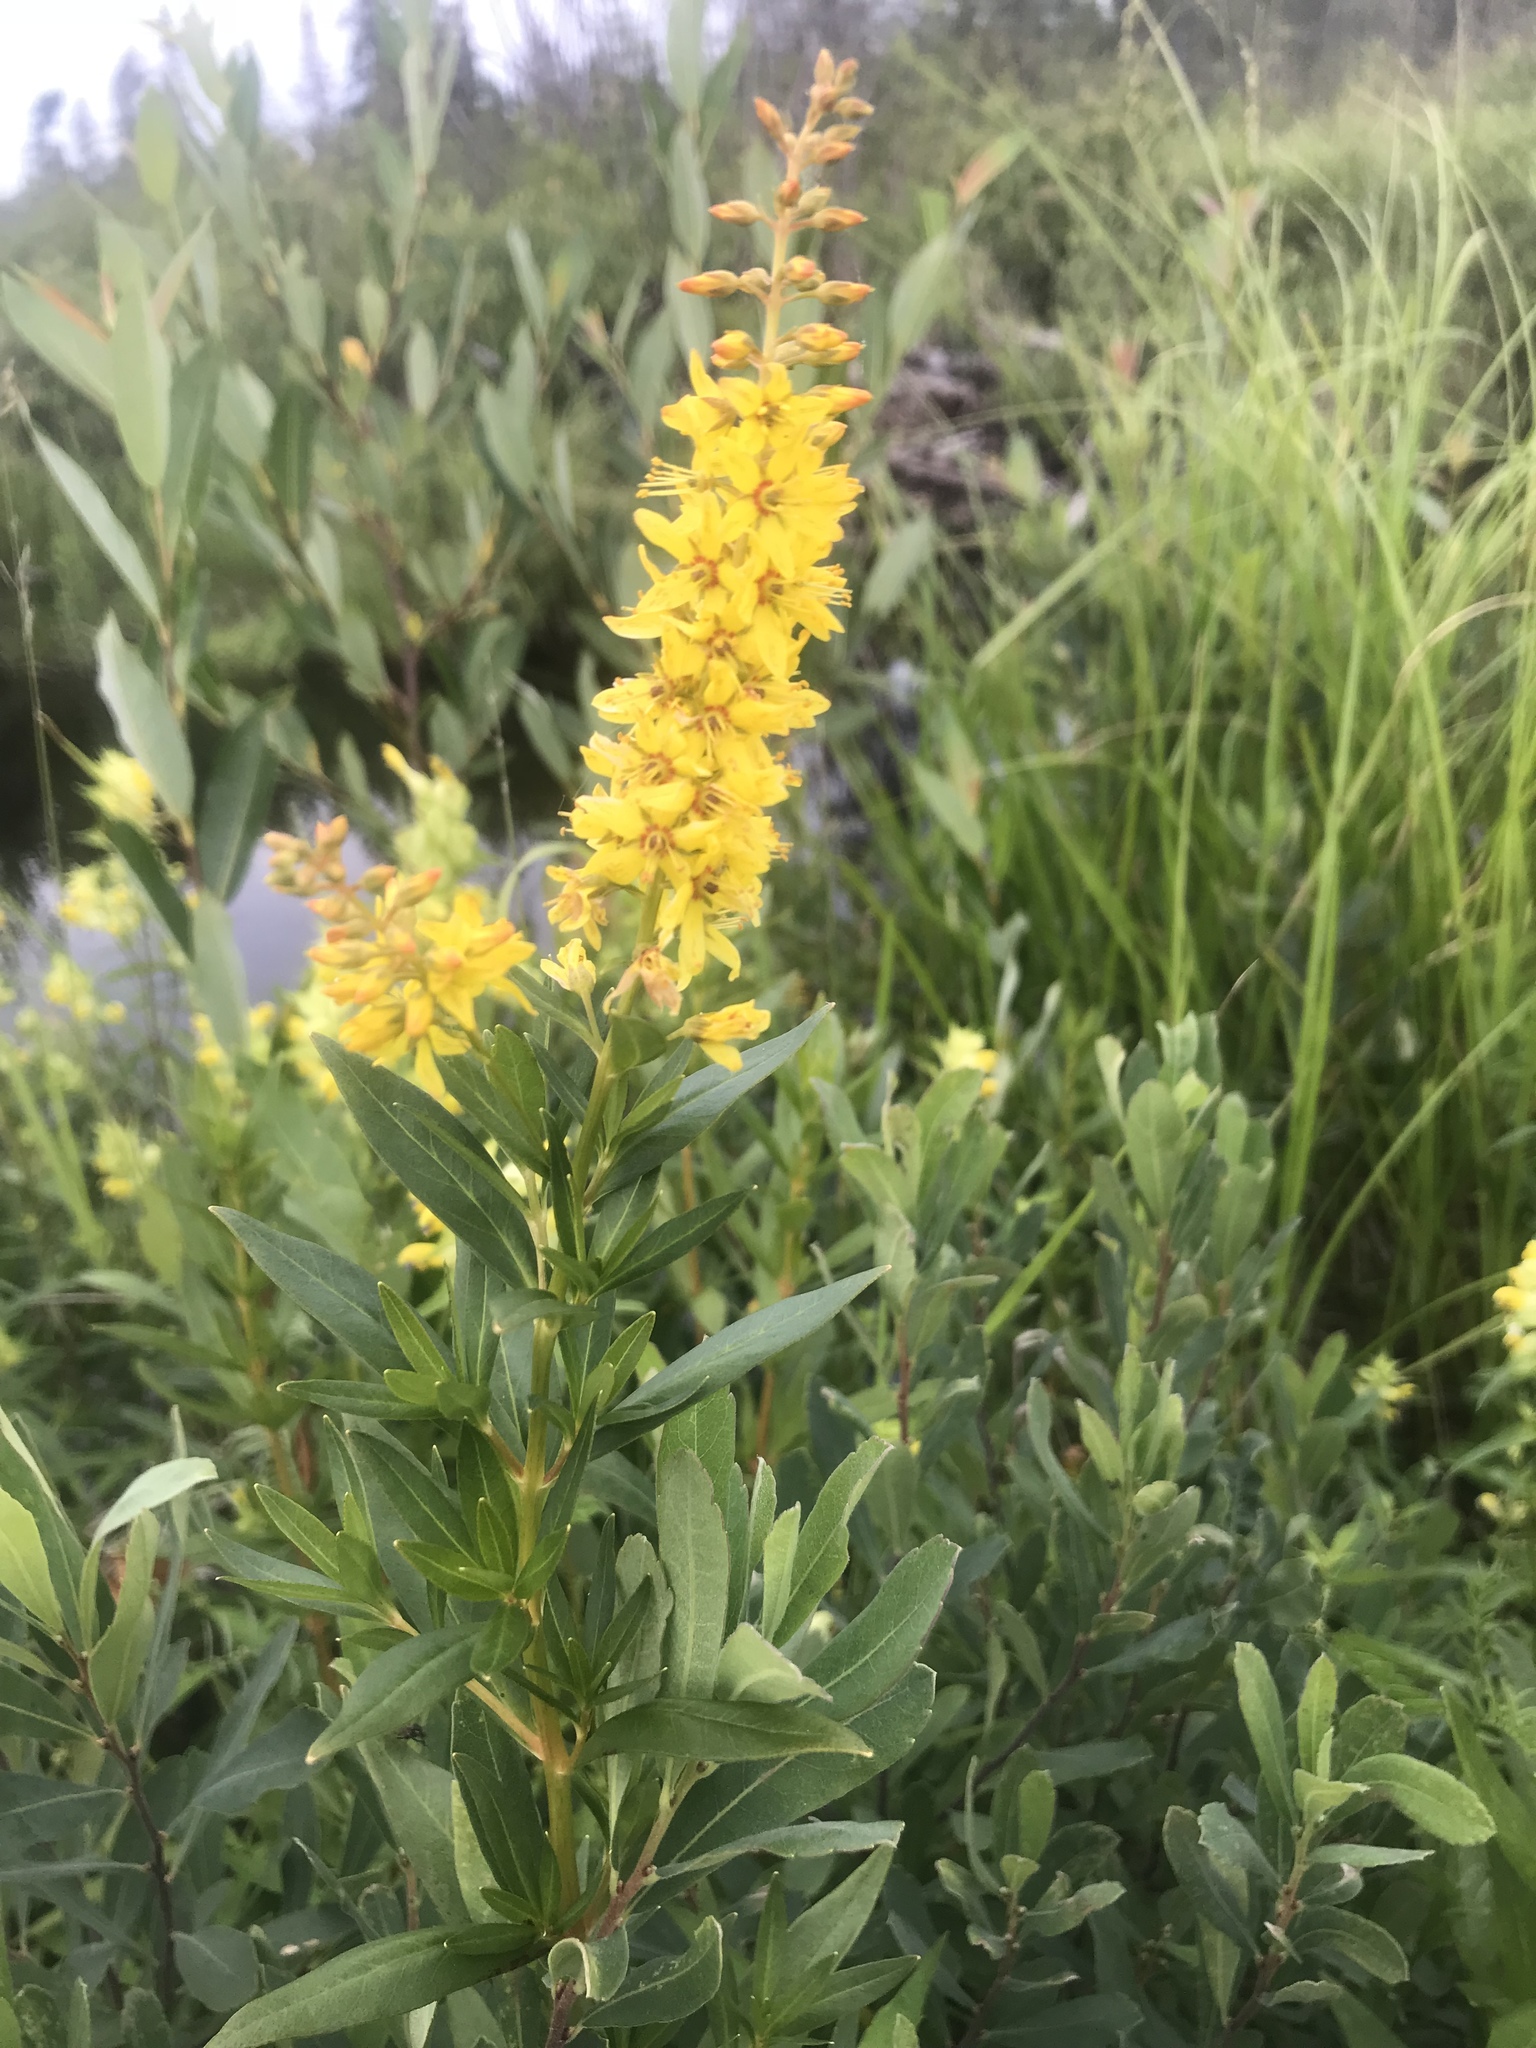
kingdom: Plantae
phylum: Tracheophyta
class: Magnoliopsida
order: Ericales
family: Primulaceae
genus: Lysimachia
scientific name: Lysimachia terrestris
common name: Lake loosestrife
